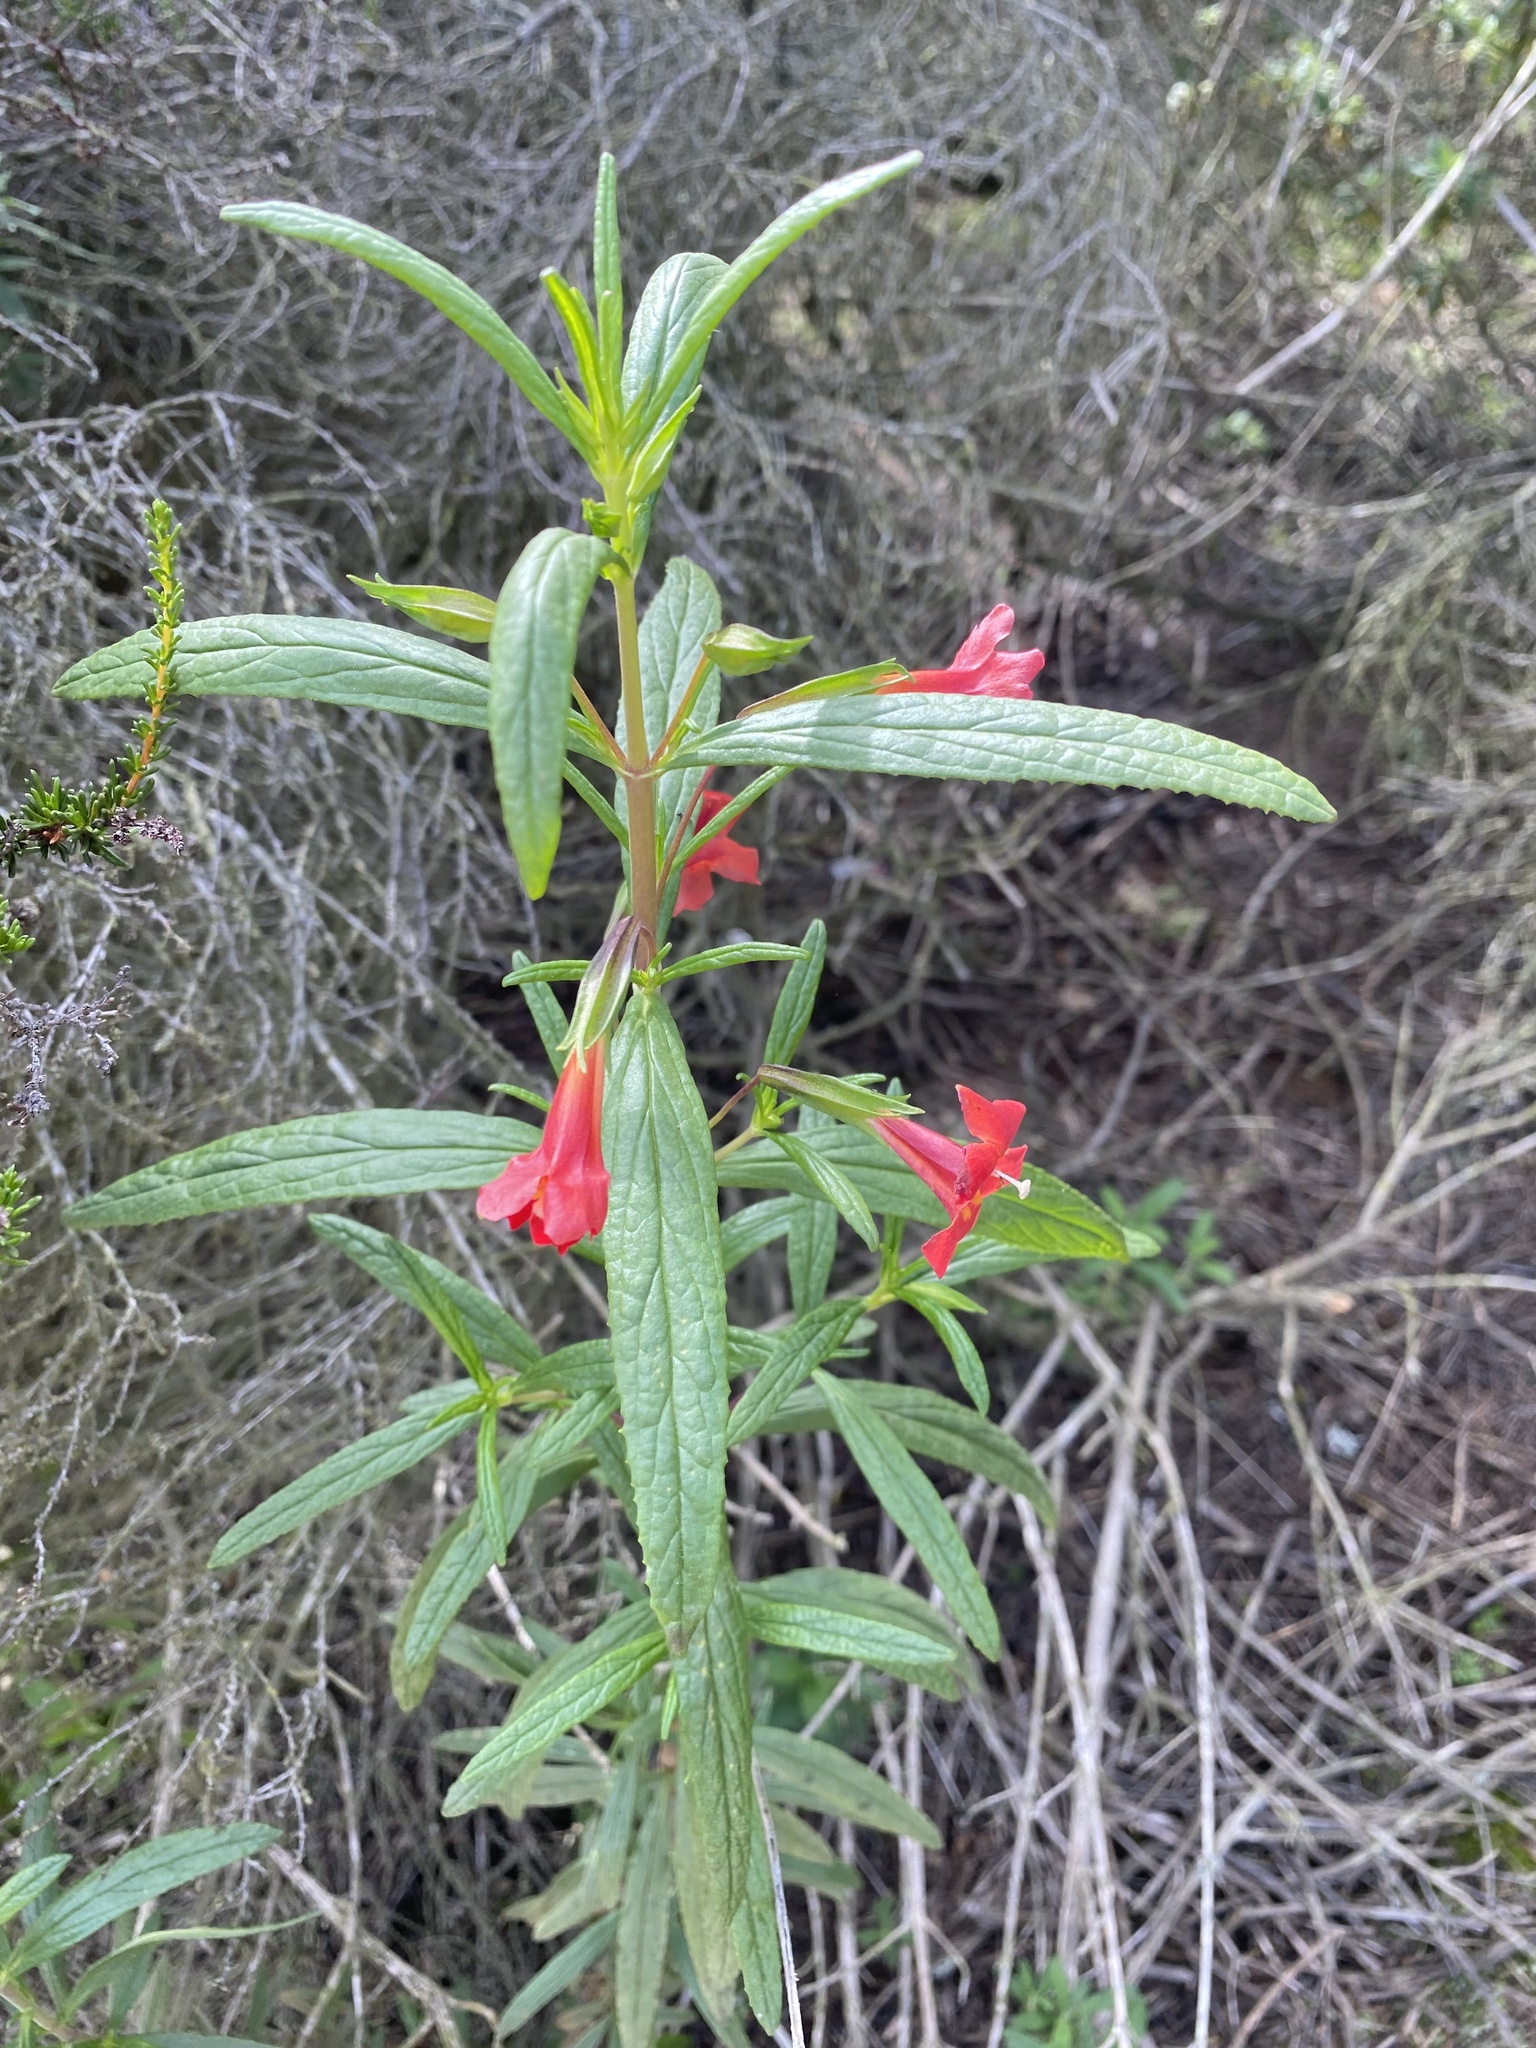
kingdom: Plantae
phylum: Tracheophyta
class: Magnoliopsida
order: Lamiales
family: Phrymaceae
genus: Diplacus
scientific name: Diplacus puniceus
